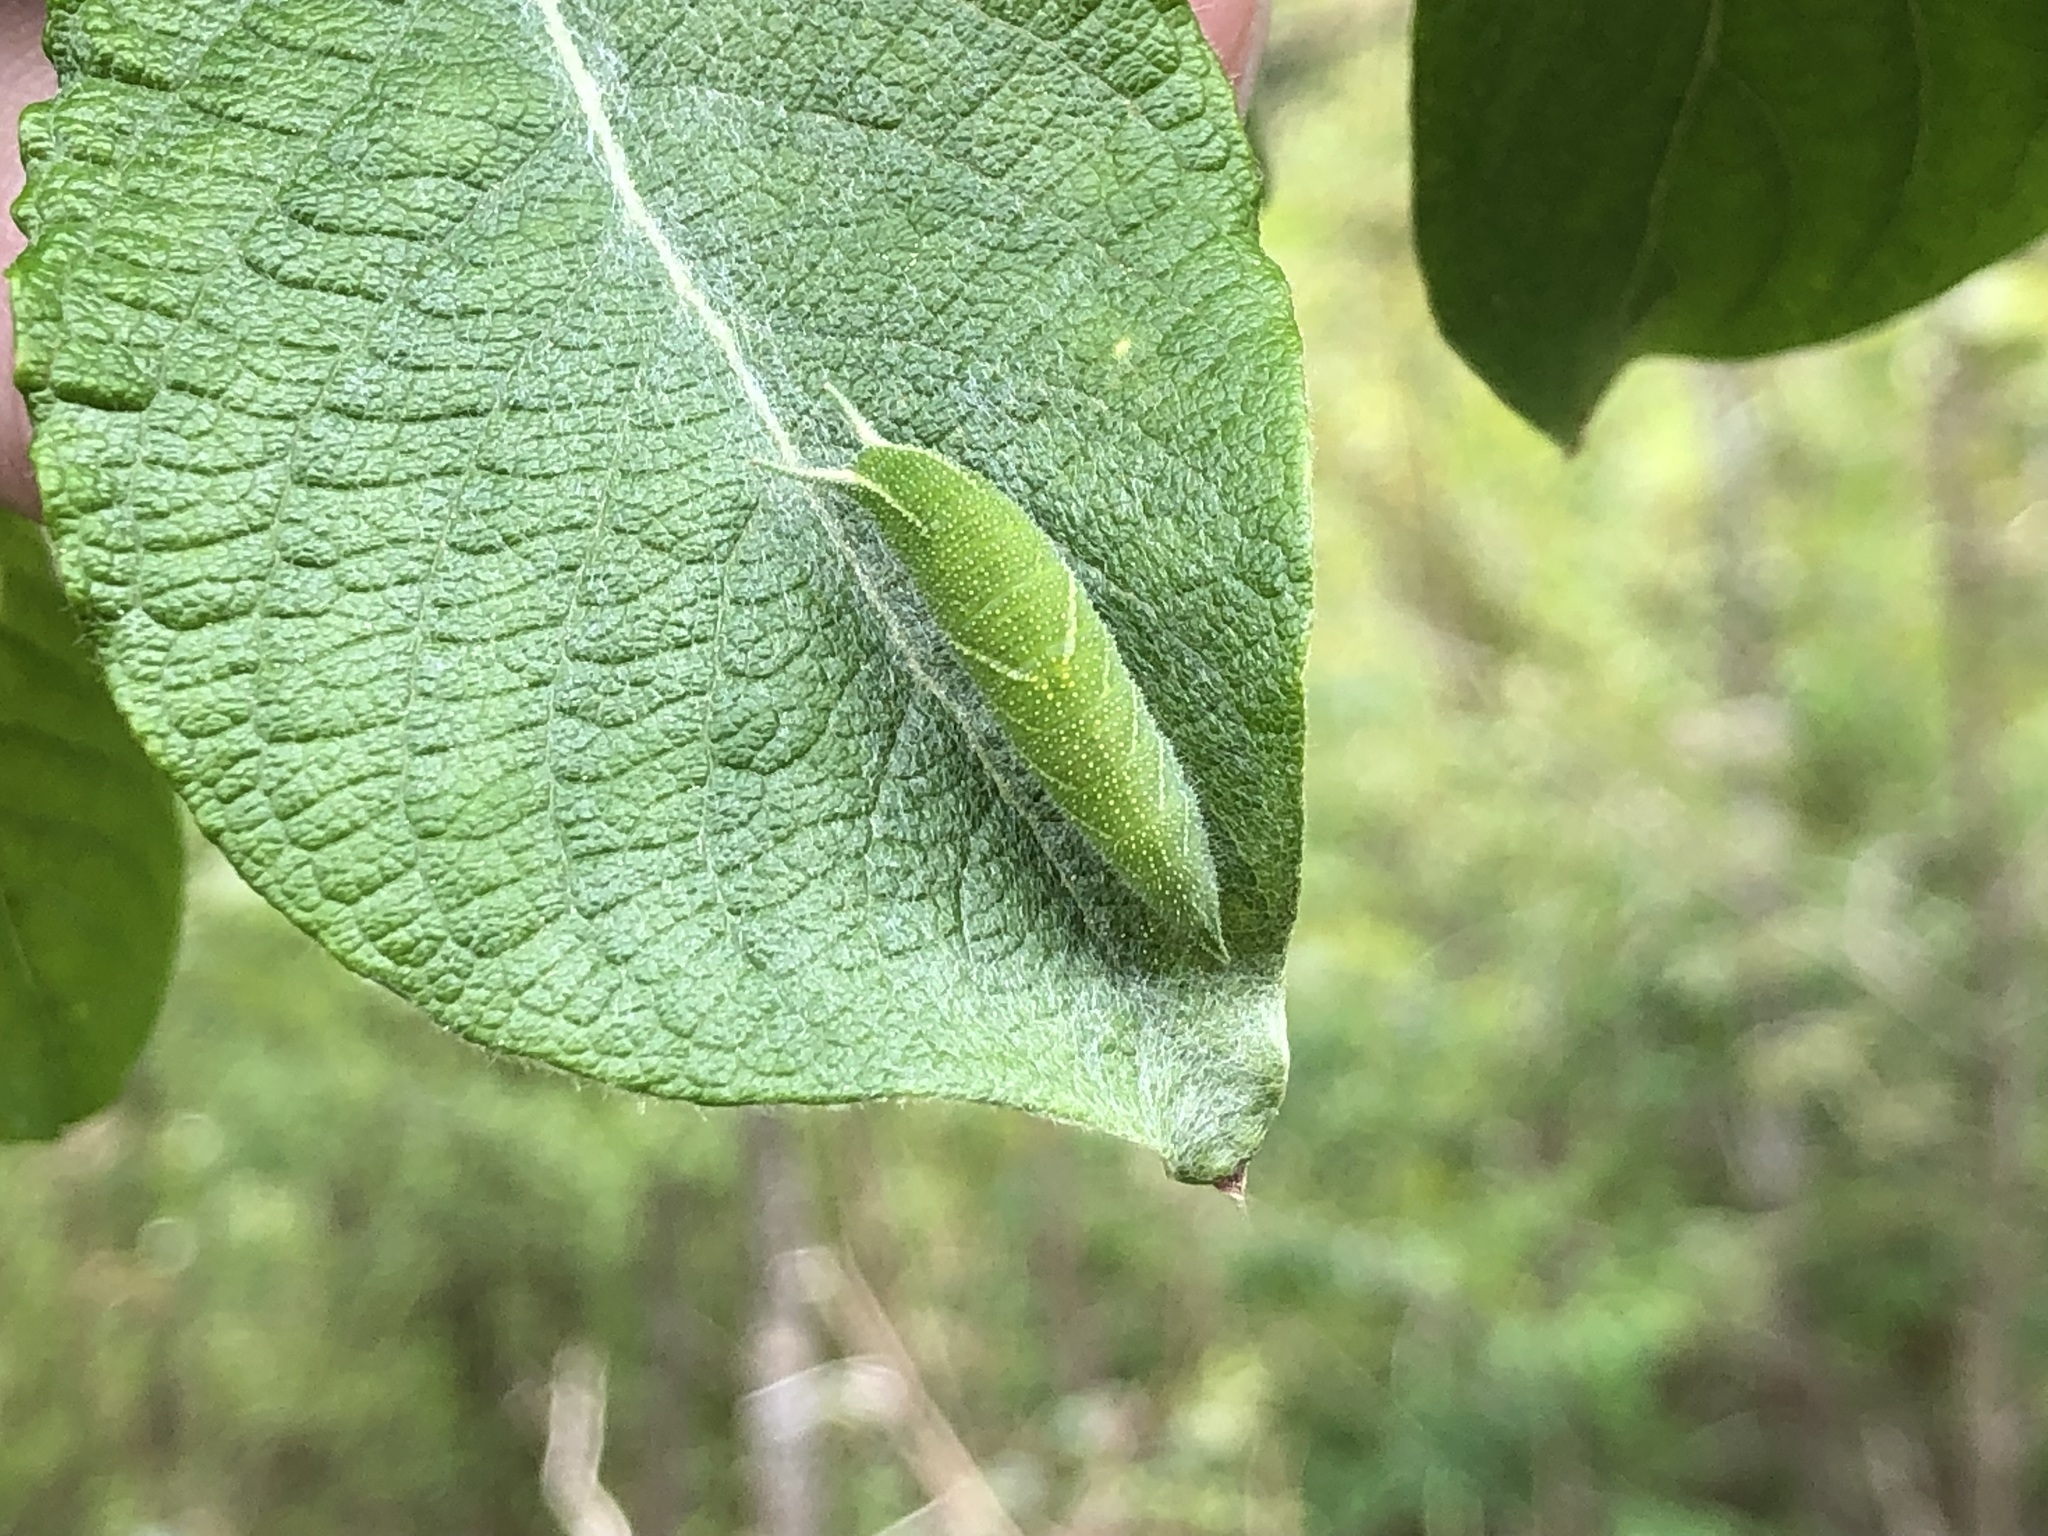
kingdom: Animalia
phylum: Arthropoda
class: Insecta
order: Lepidoptera
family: Nymphalidae
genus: Apatura
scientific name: Apatura iris
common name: Purple emperor
